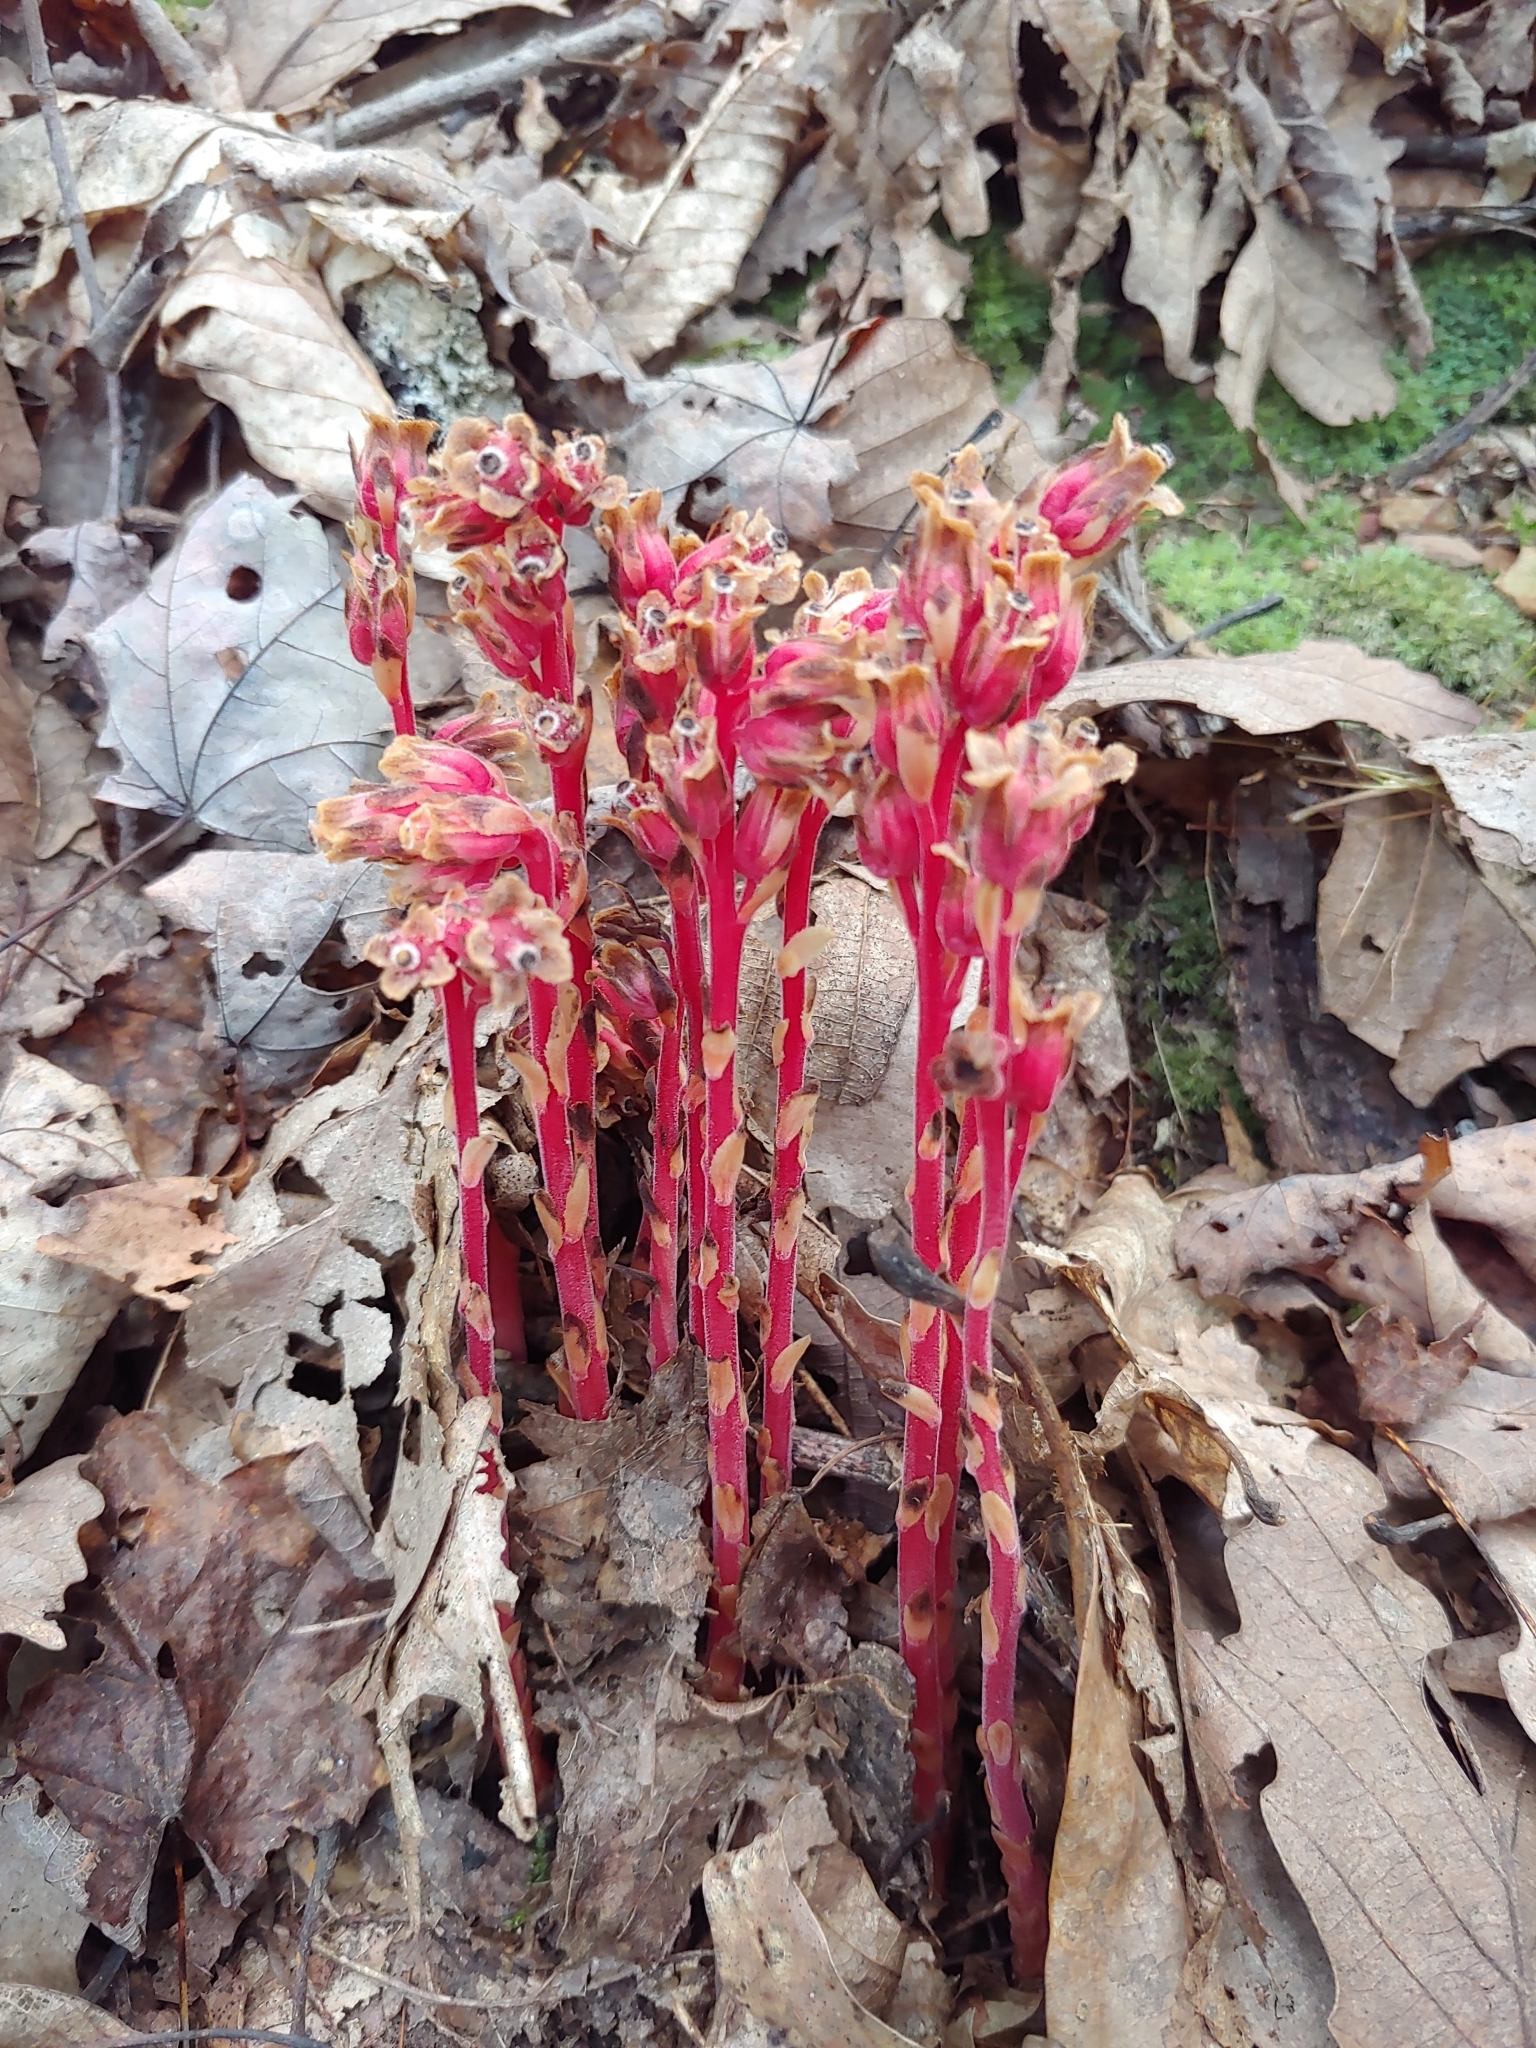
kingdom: Plantae
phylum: Tracheophyta
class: Magnoliopsida
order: Ericales
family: Ericaceae
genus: Hypopitys
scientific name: Hypopitys monotropa
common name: Yellow bird's-nest
